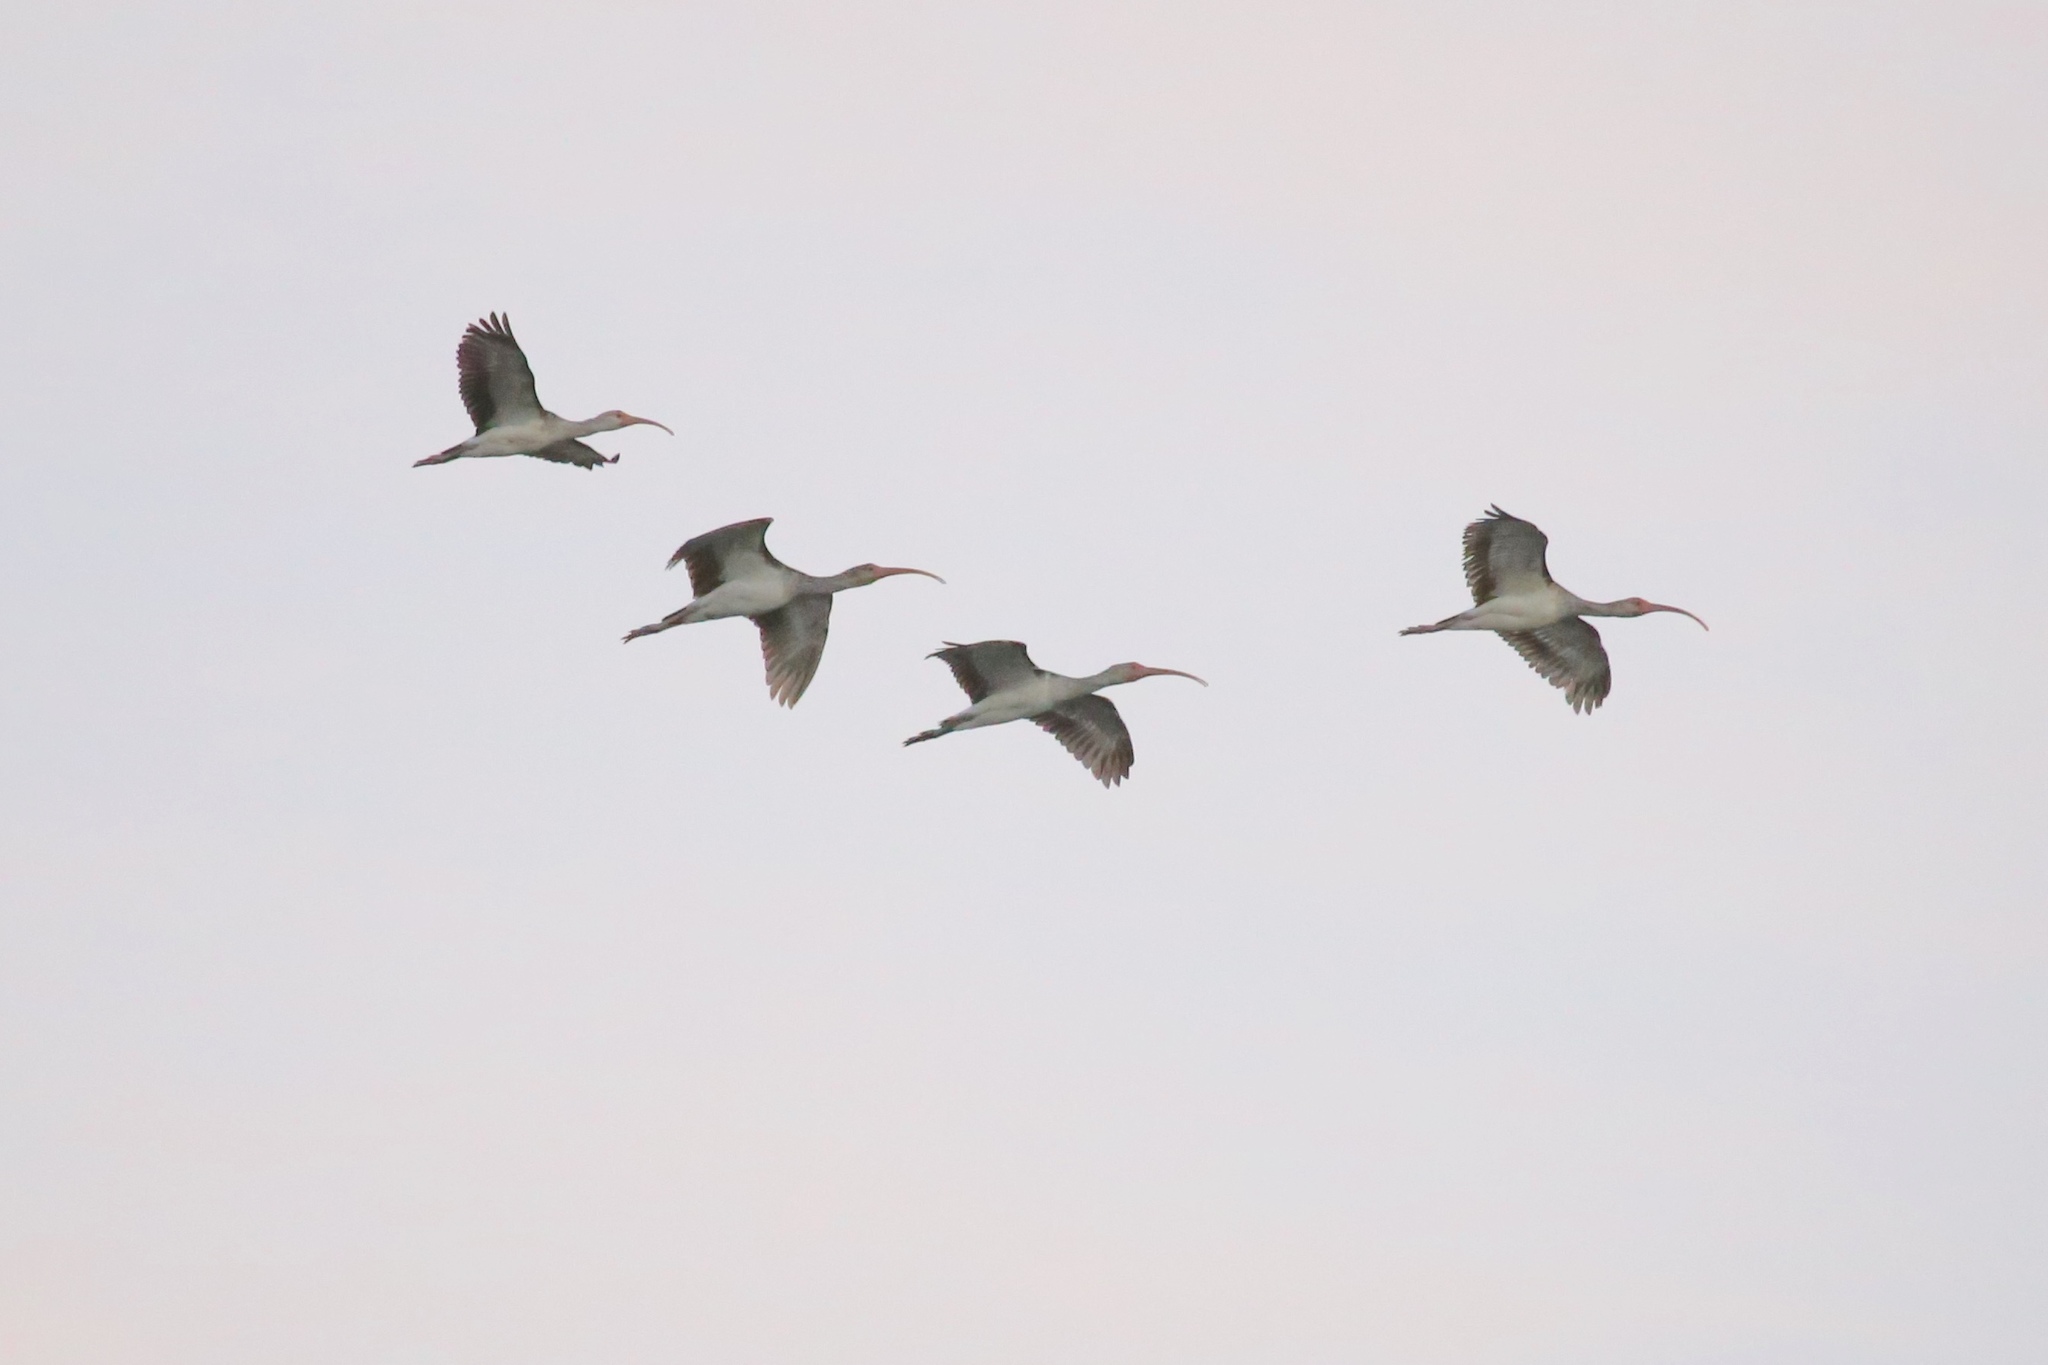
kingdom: Animalia
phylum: Chordata
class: Aves
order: Pelecaniformes
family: Threskiornithidae
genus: Eudocimus
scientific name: Eudocimus albus
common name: White ibis
